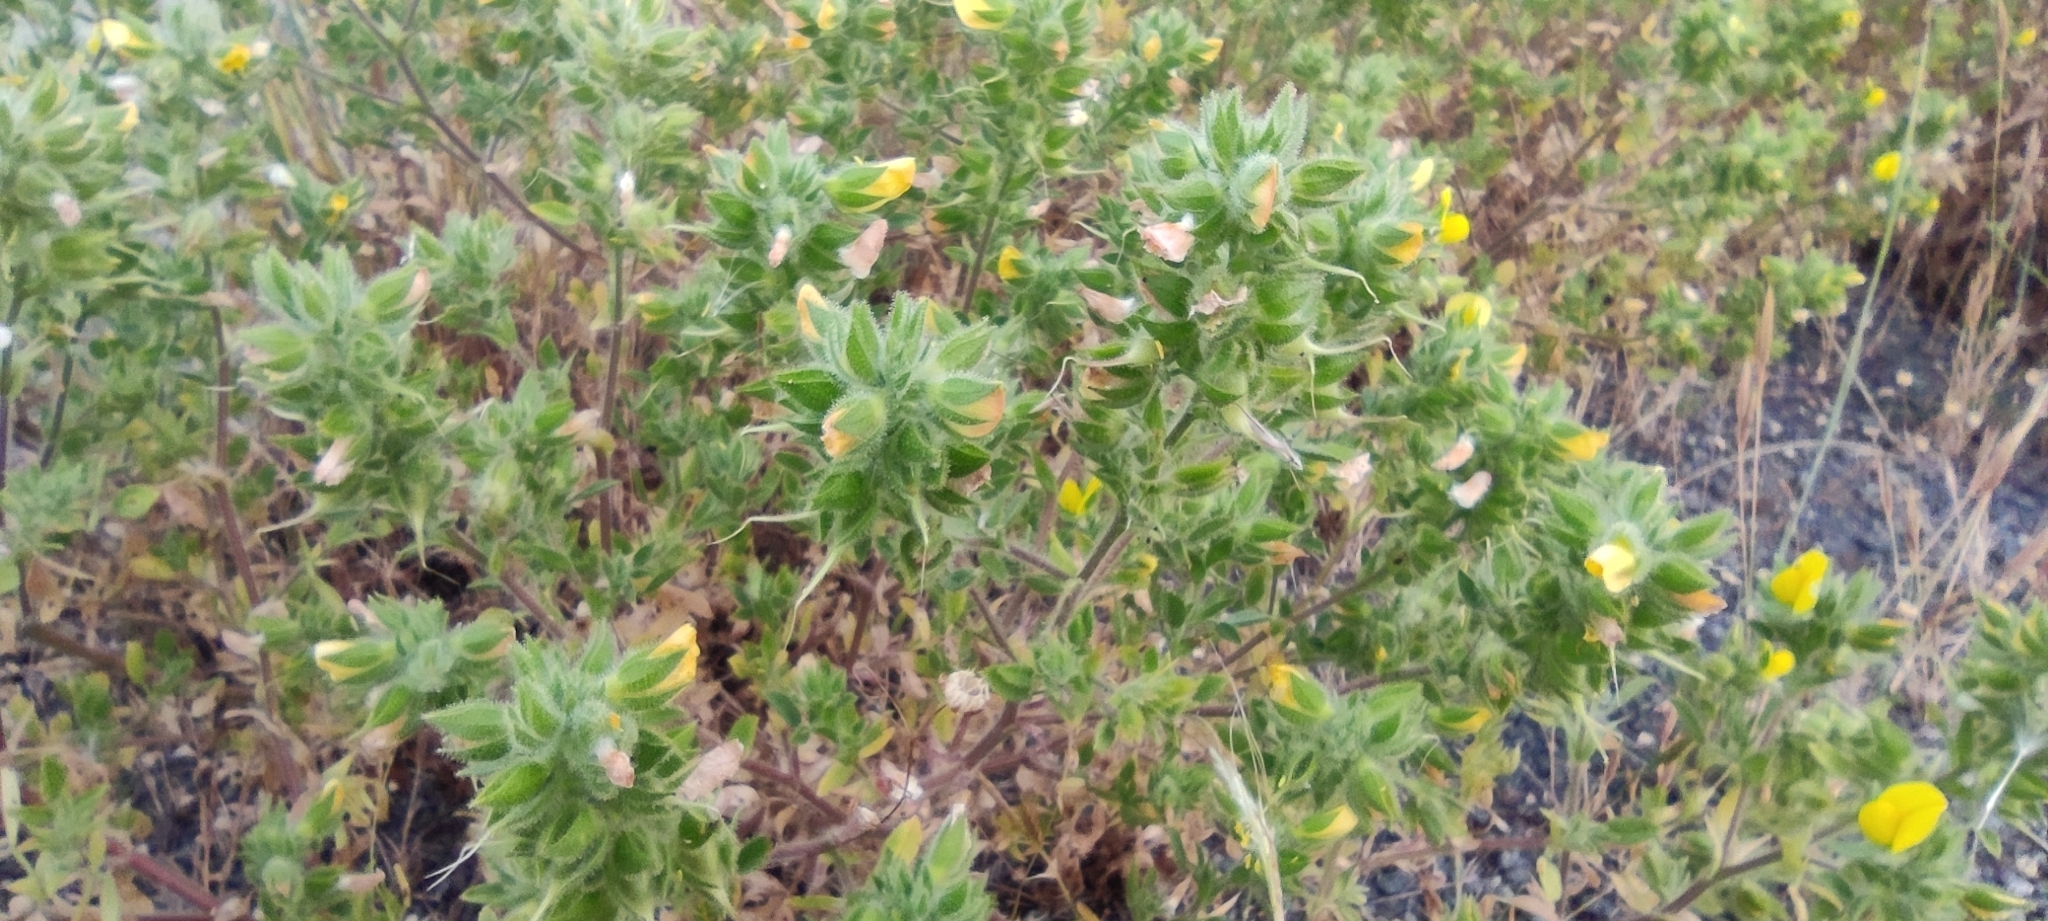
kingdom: Plantae
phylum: Tracheophyta
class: Magnoliopsida
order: Fabales
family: Fabaceae
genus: Ononis
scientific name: Ononis pubescens
